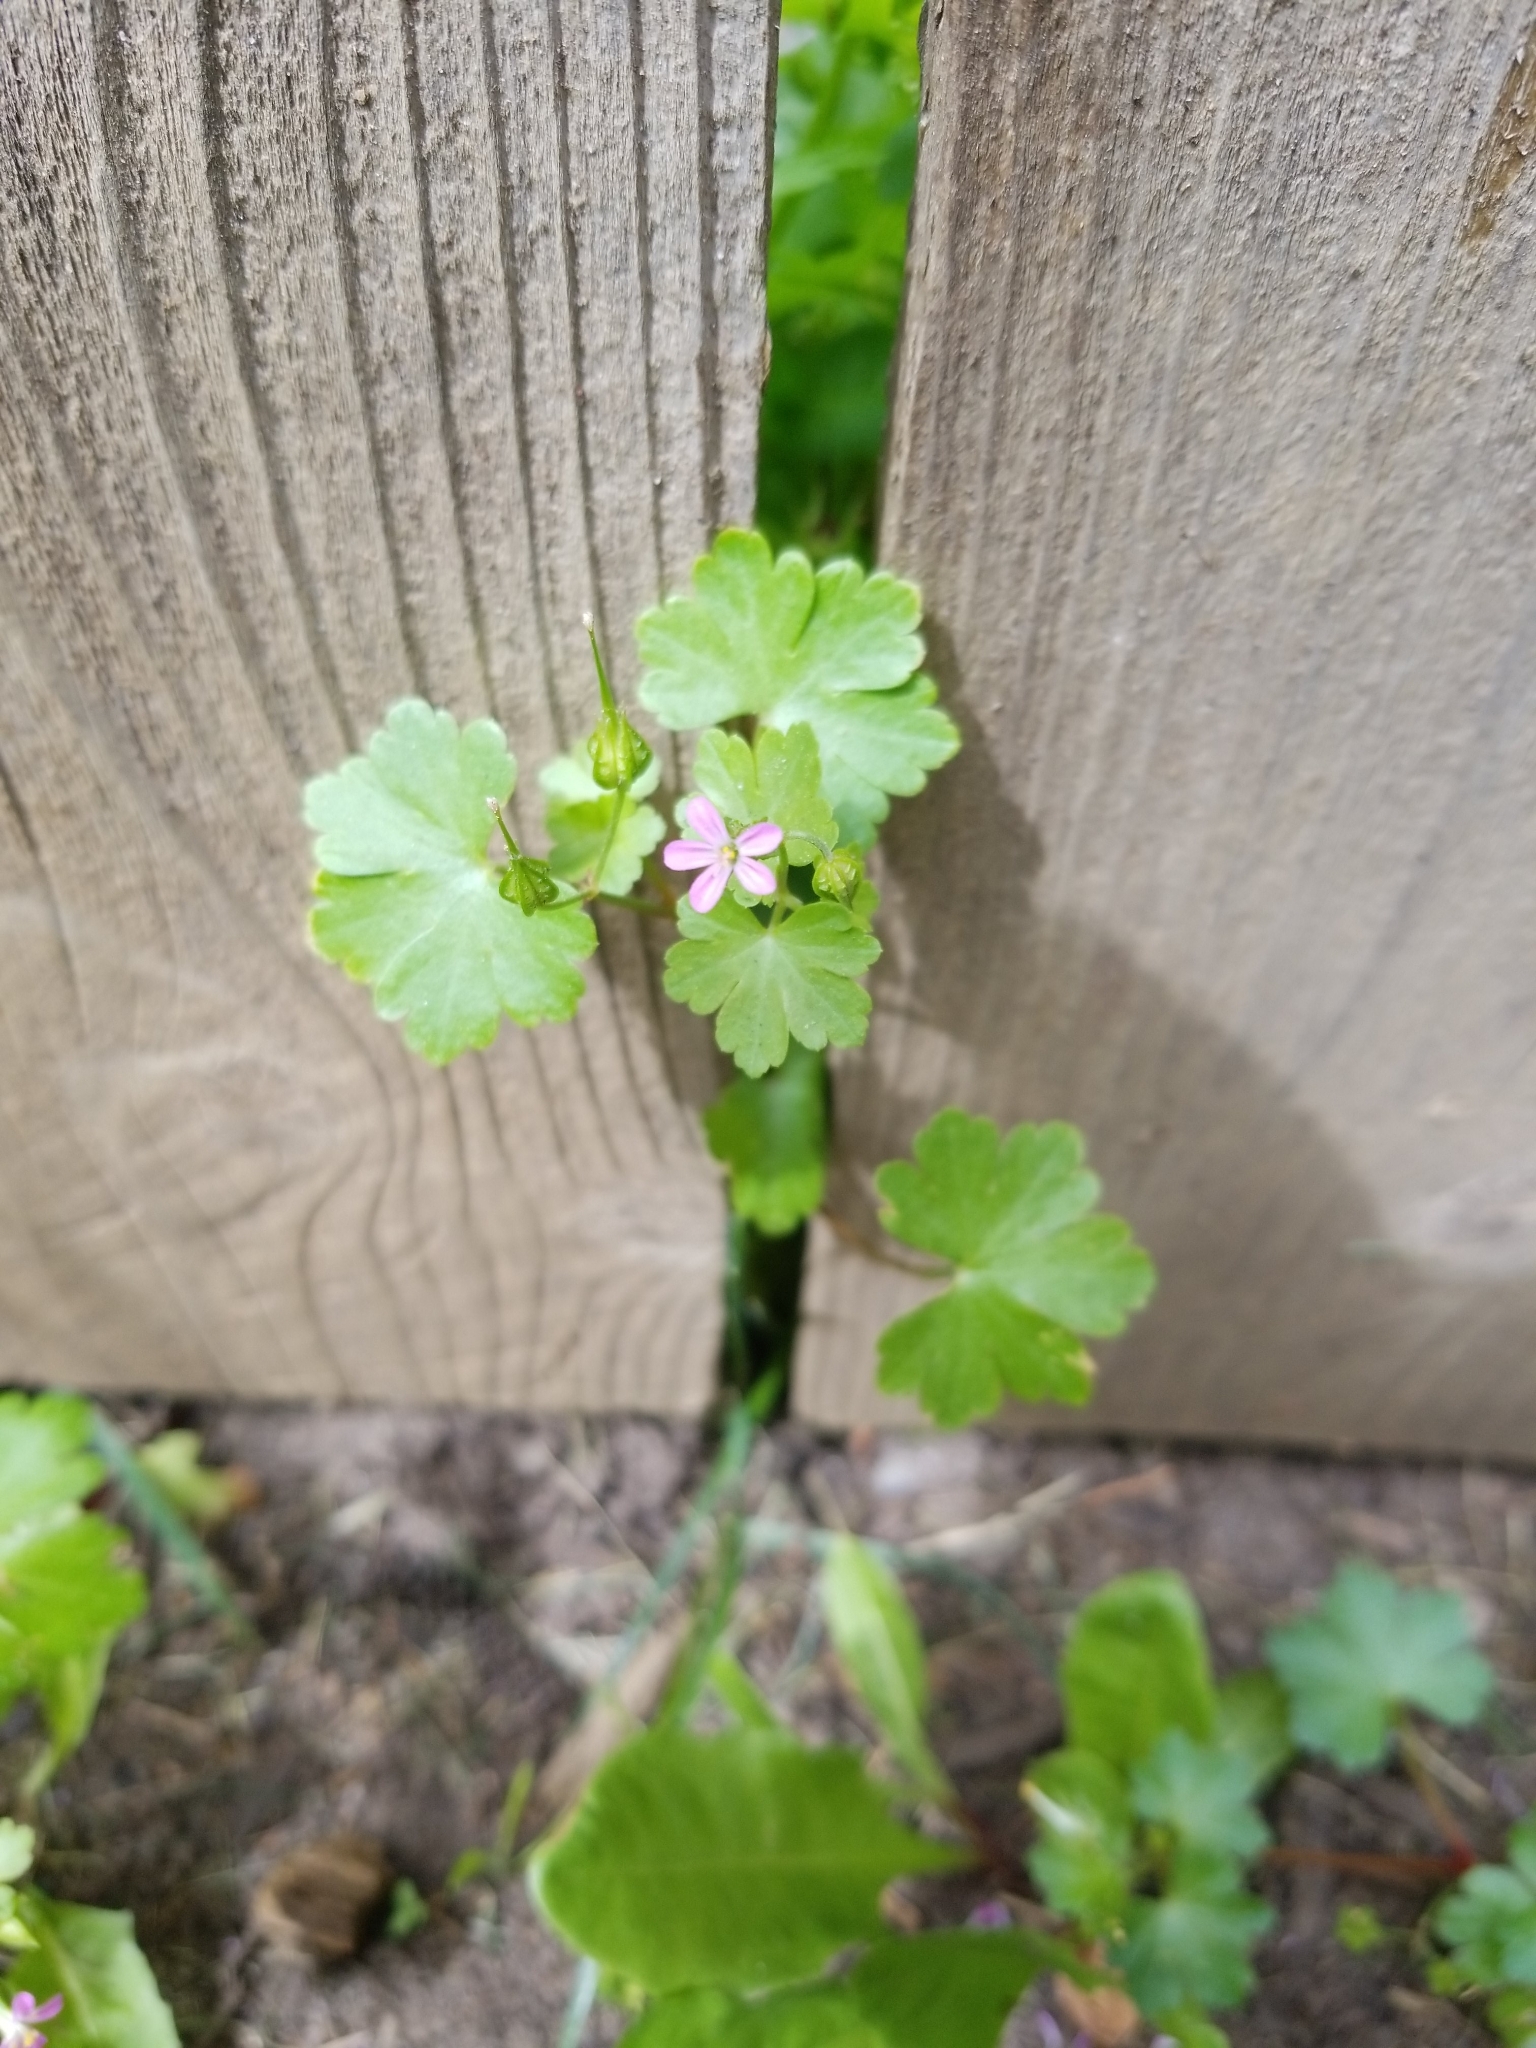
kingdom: Plantae
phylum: Tracheophyta
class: Magnoliopsida
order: Geraniales
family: Geraniaceae
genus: Geranium
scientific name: Geranium lucidum
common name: Shining crane's-bill
